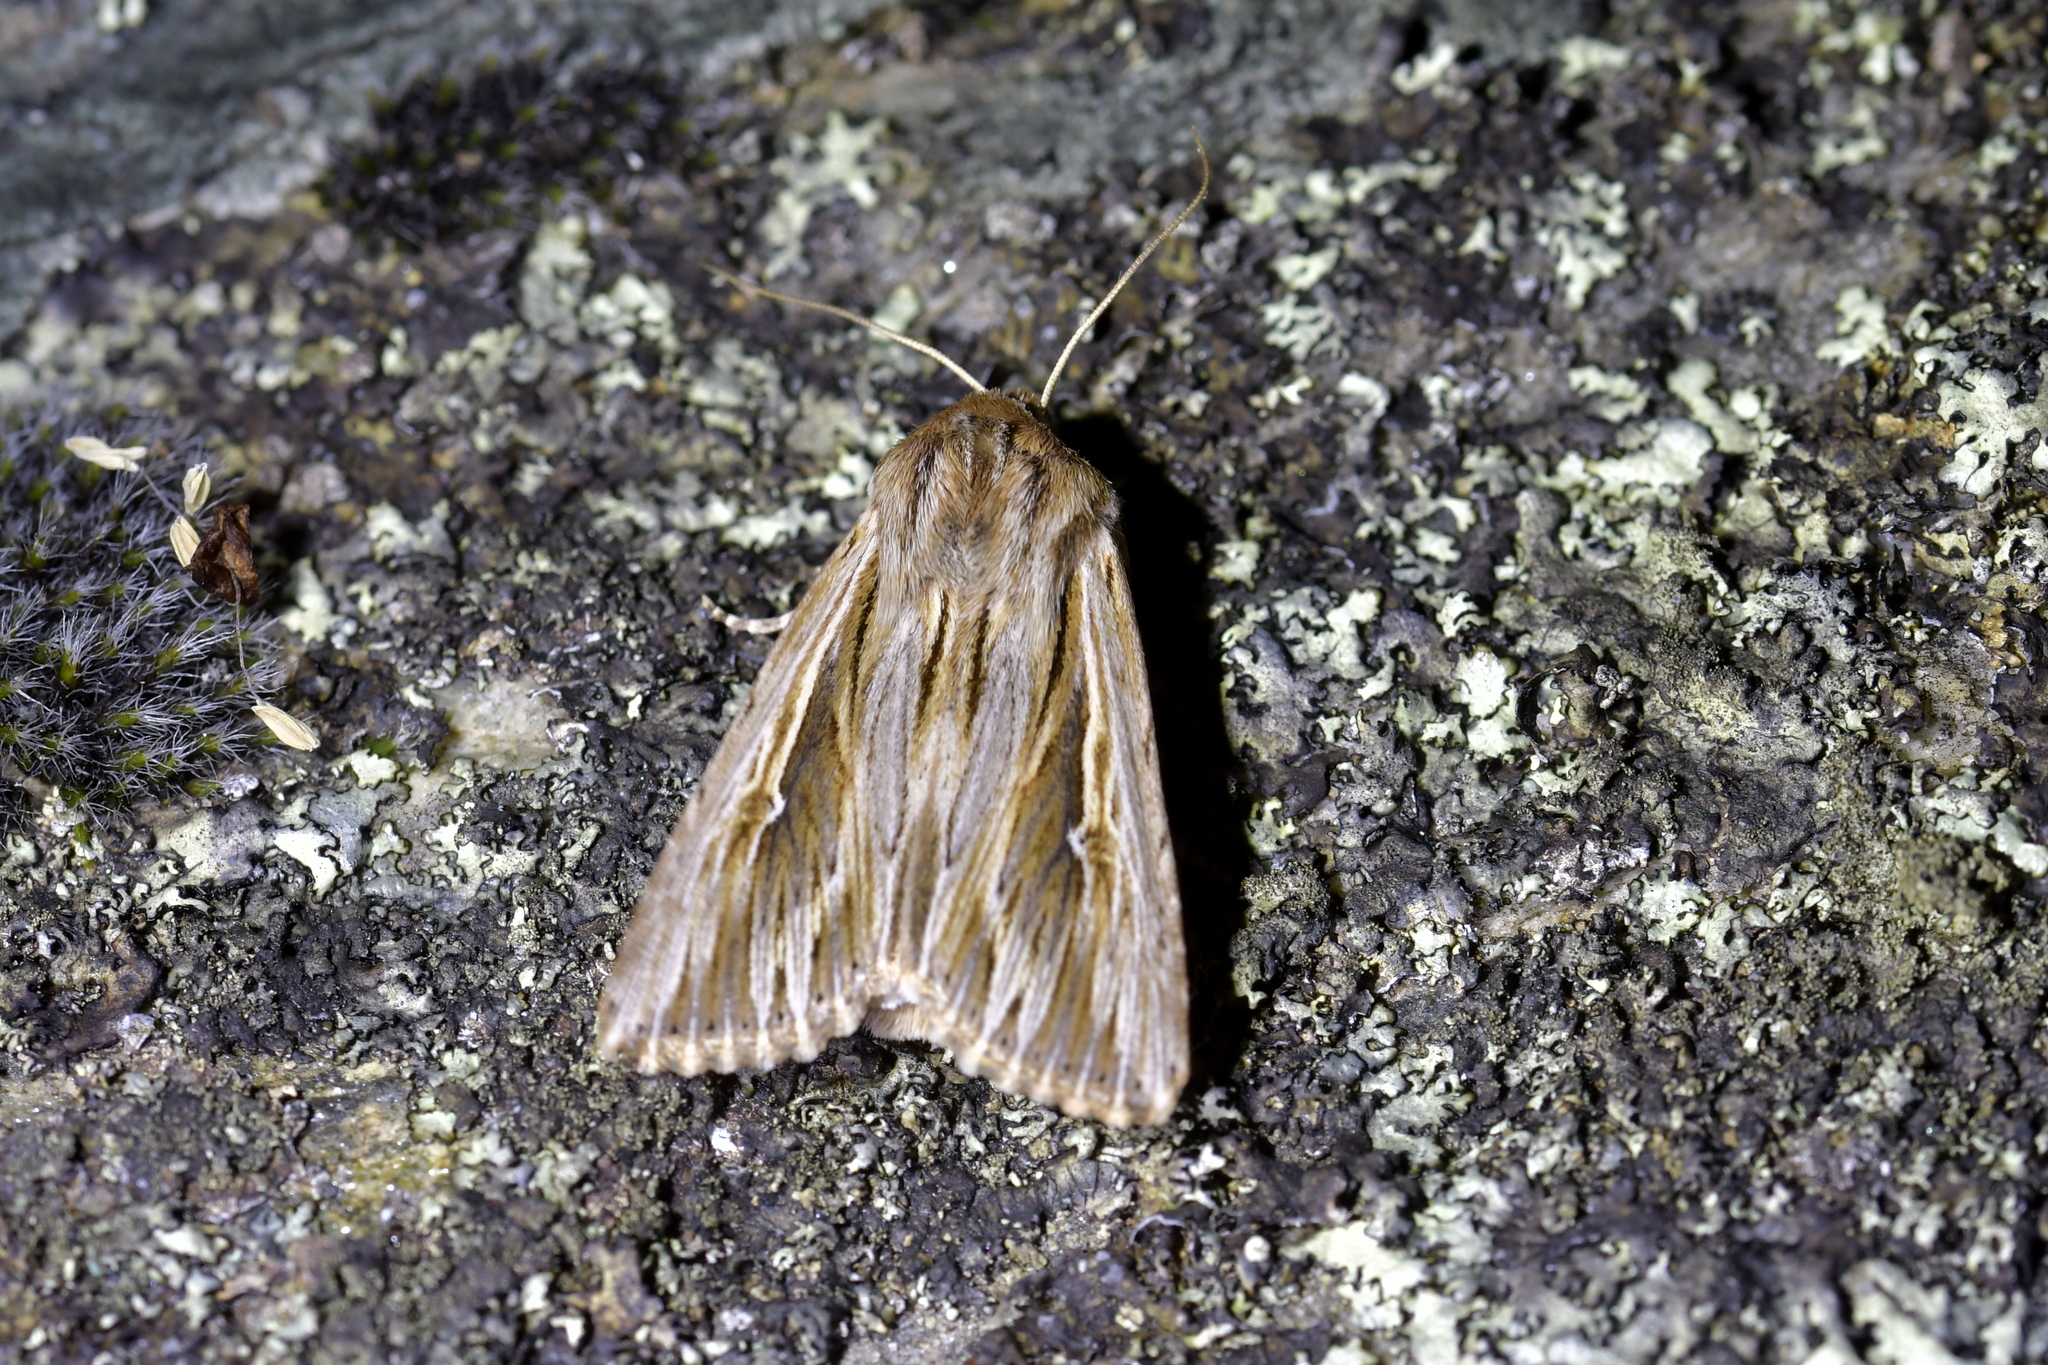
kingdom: Animalia
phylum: Arthropoda
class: Insecta
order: Lepidoptera
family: Noctuidae
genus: Persectania
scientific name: Persectania aversa
